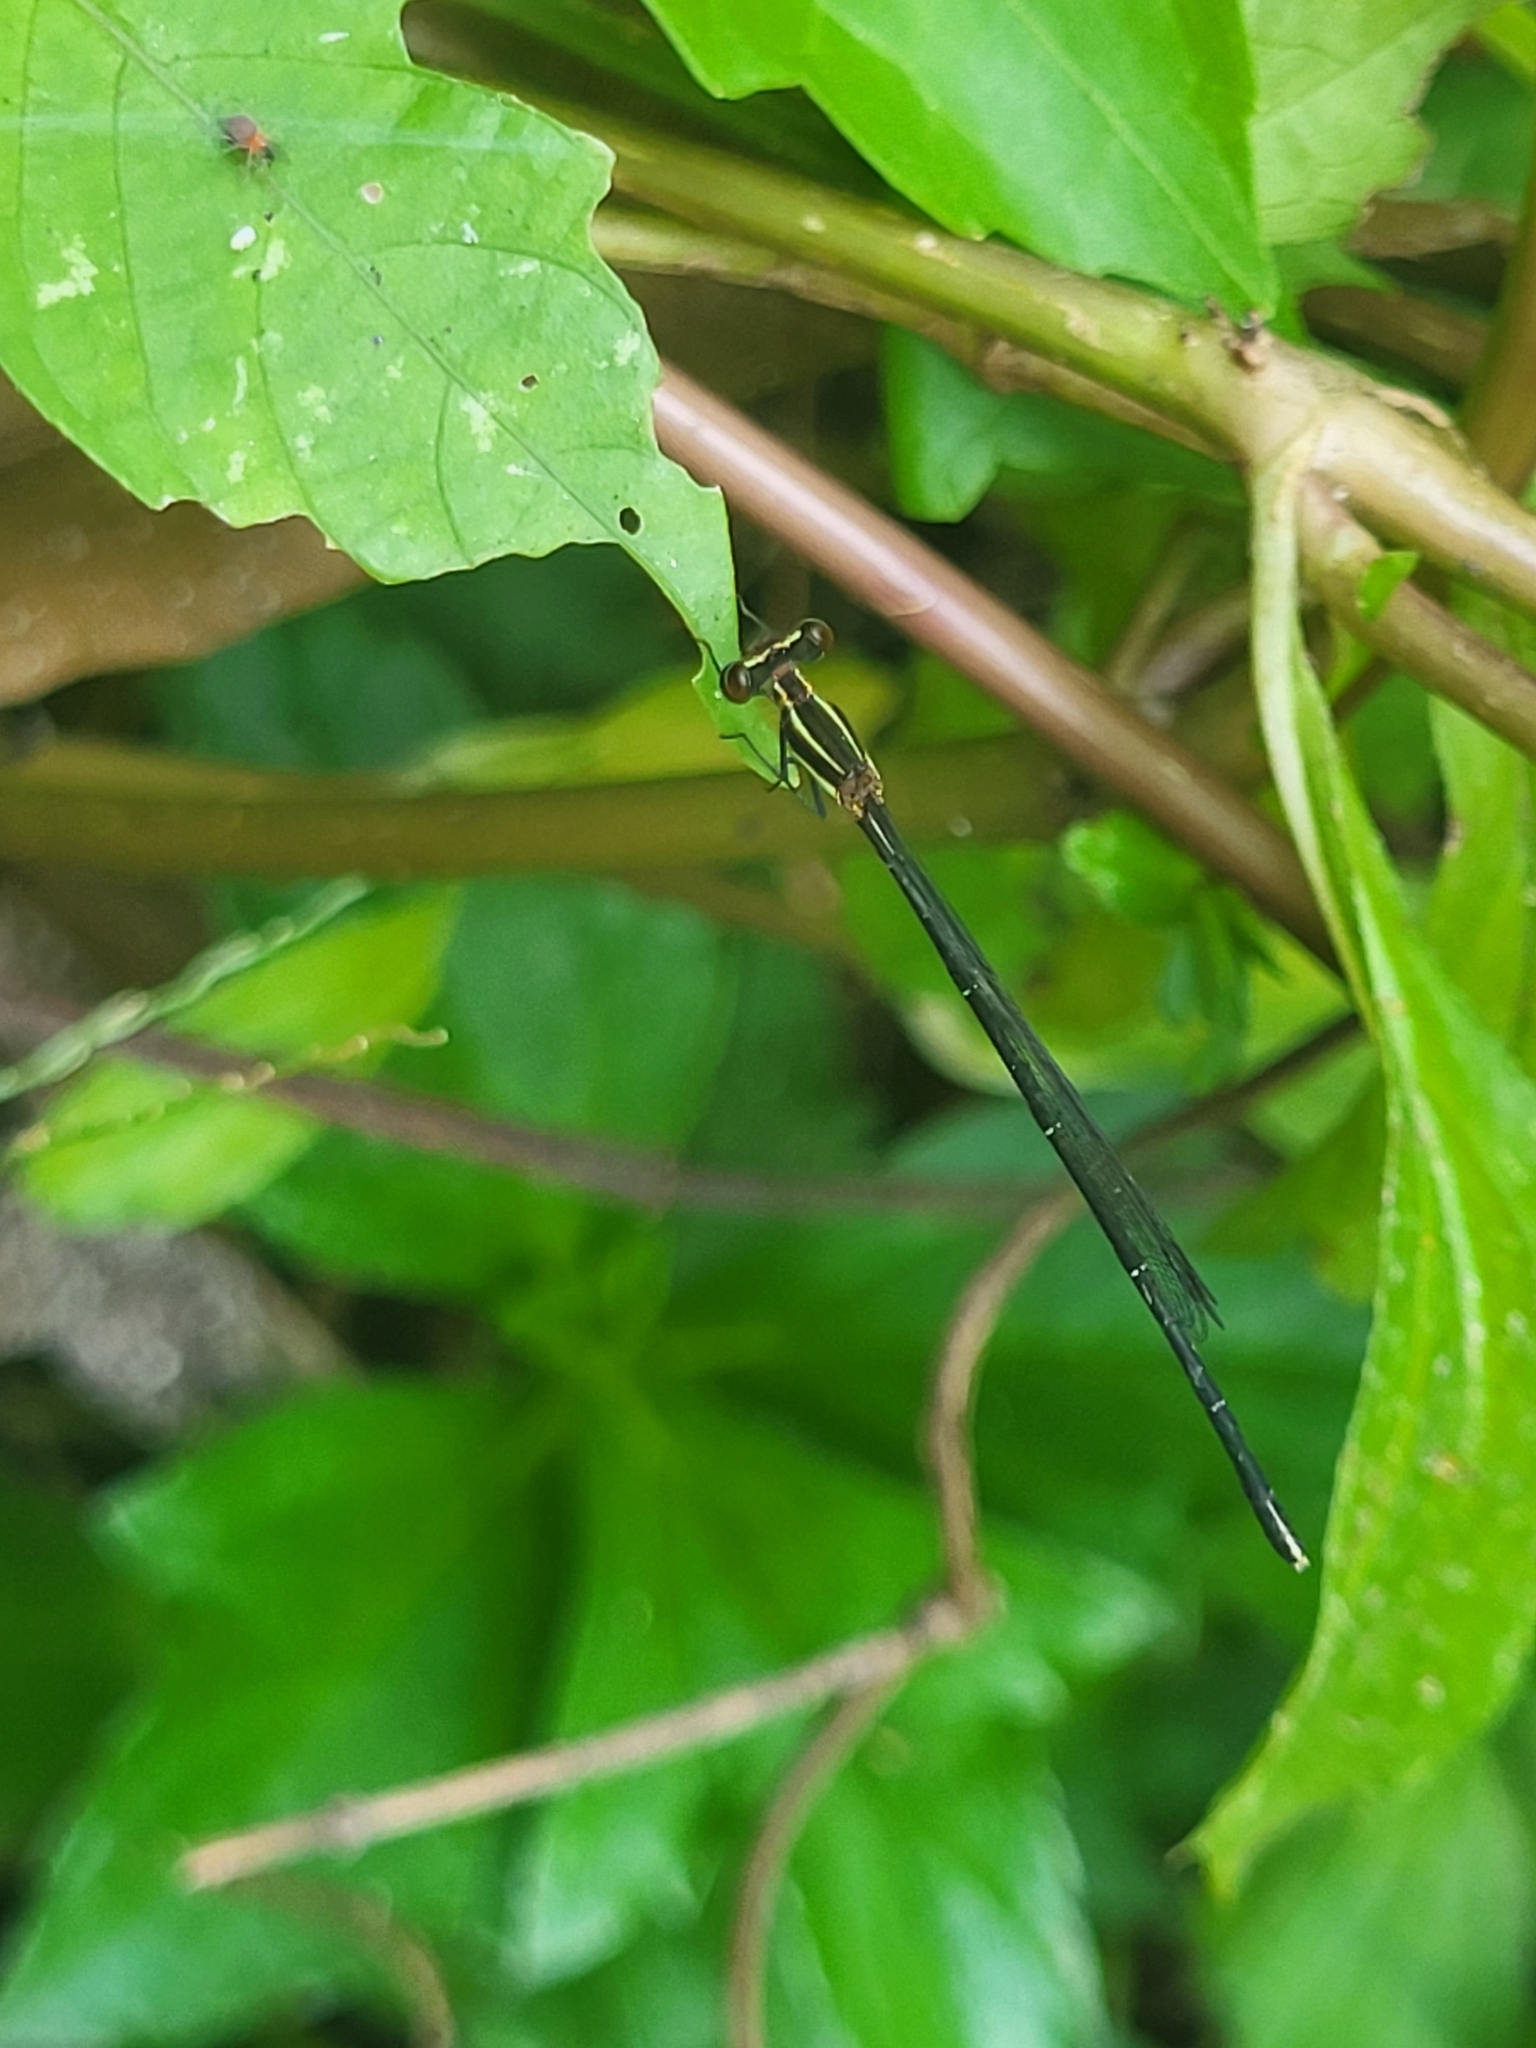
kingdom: Animalia
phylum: Arthropoda
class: Insecta
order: Odonata
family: Platycnemididae
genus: Prodasineura
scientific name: Prodasineura verticalis
